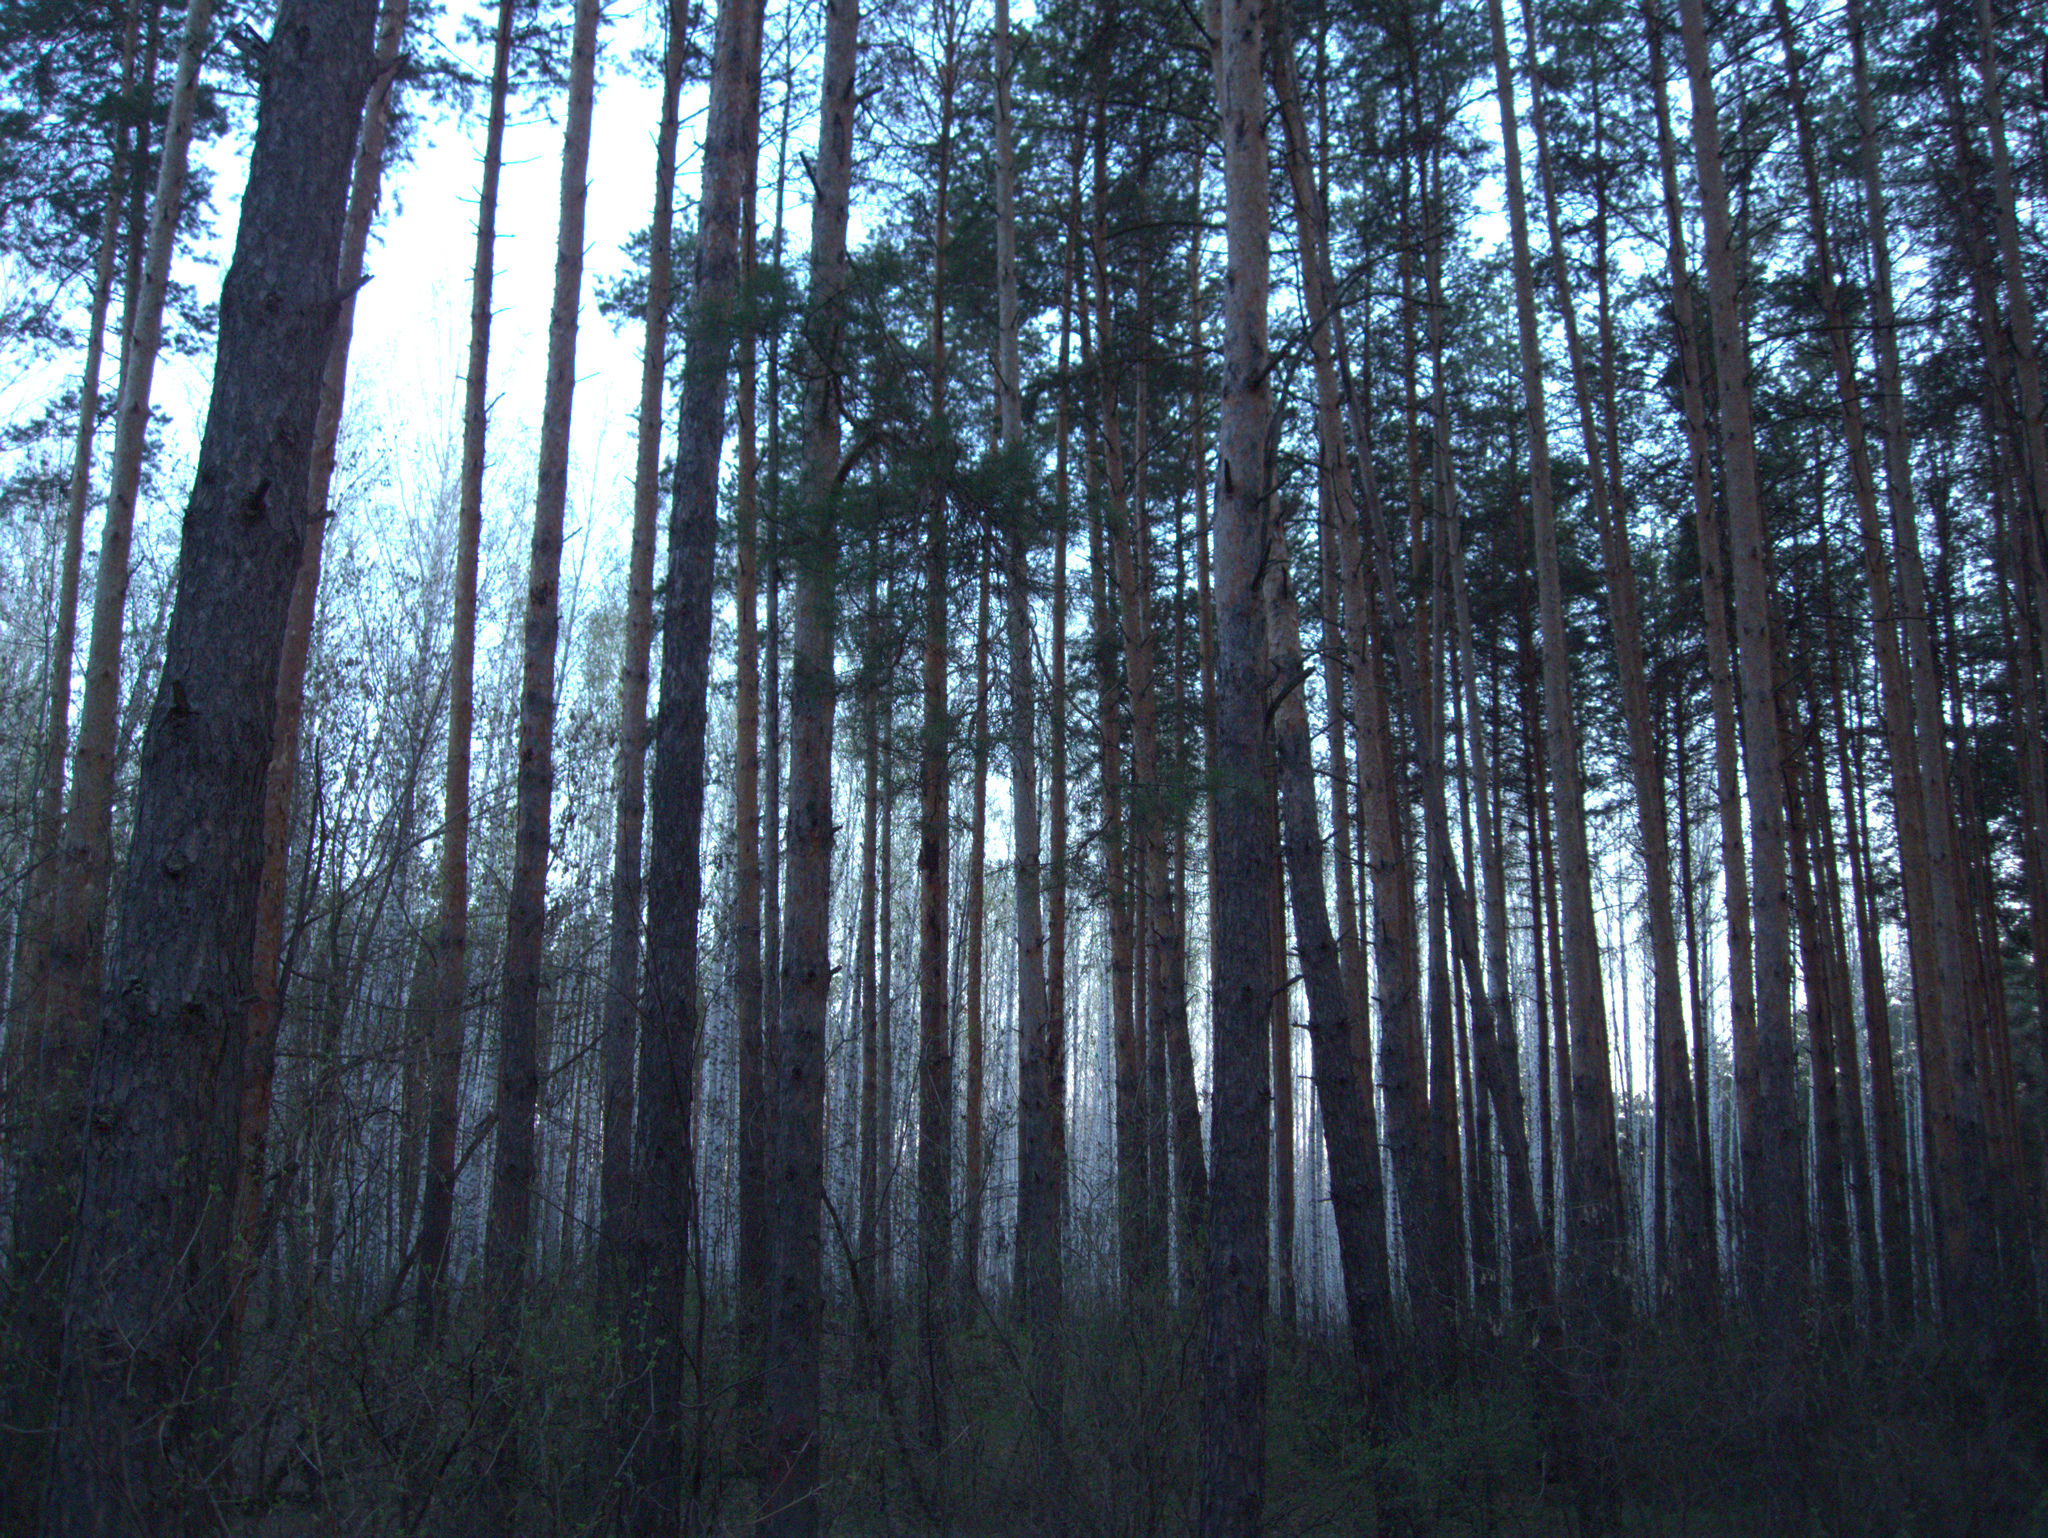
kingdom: Plantae
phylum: Tracheophyta
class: Pinopsida
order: Pinales
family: Pinaceae
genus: Pinus
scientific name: Pinus sylvestris
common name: Scots pine
